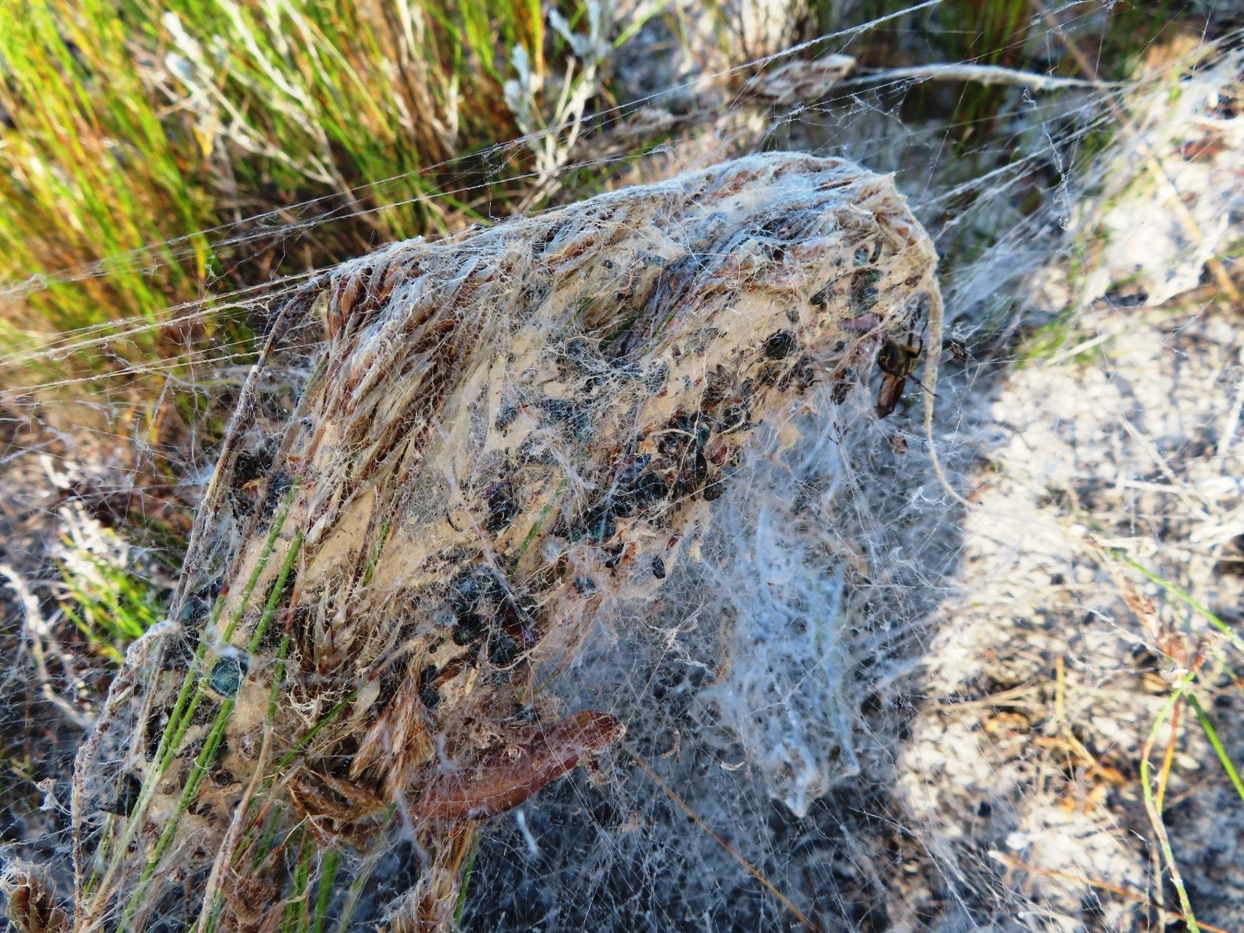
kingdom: Animalia
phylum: Arthropoda
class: Arachnida
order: Araneae
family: Eresidae
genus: Stegodyphus
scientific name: Stegodyphus dumicola
